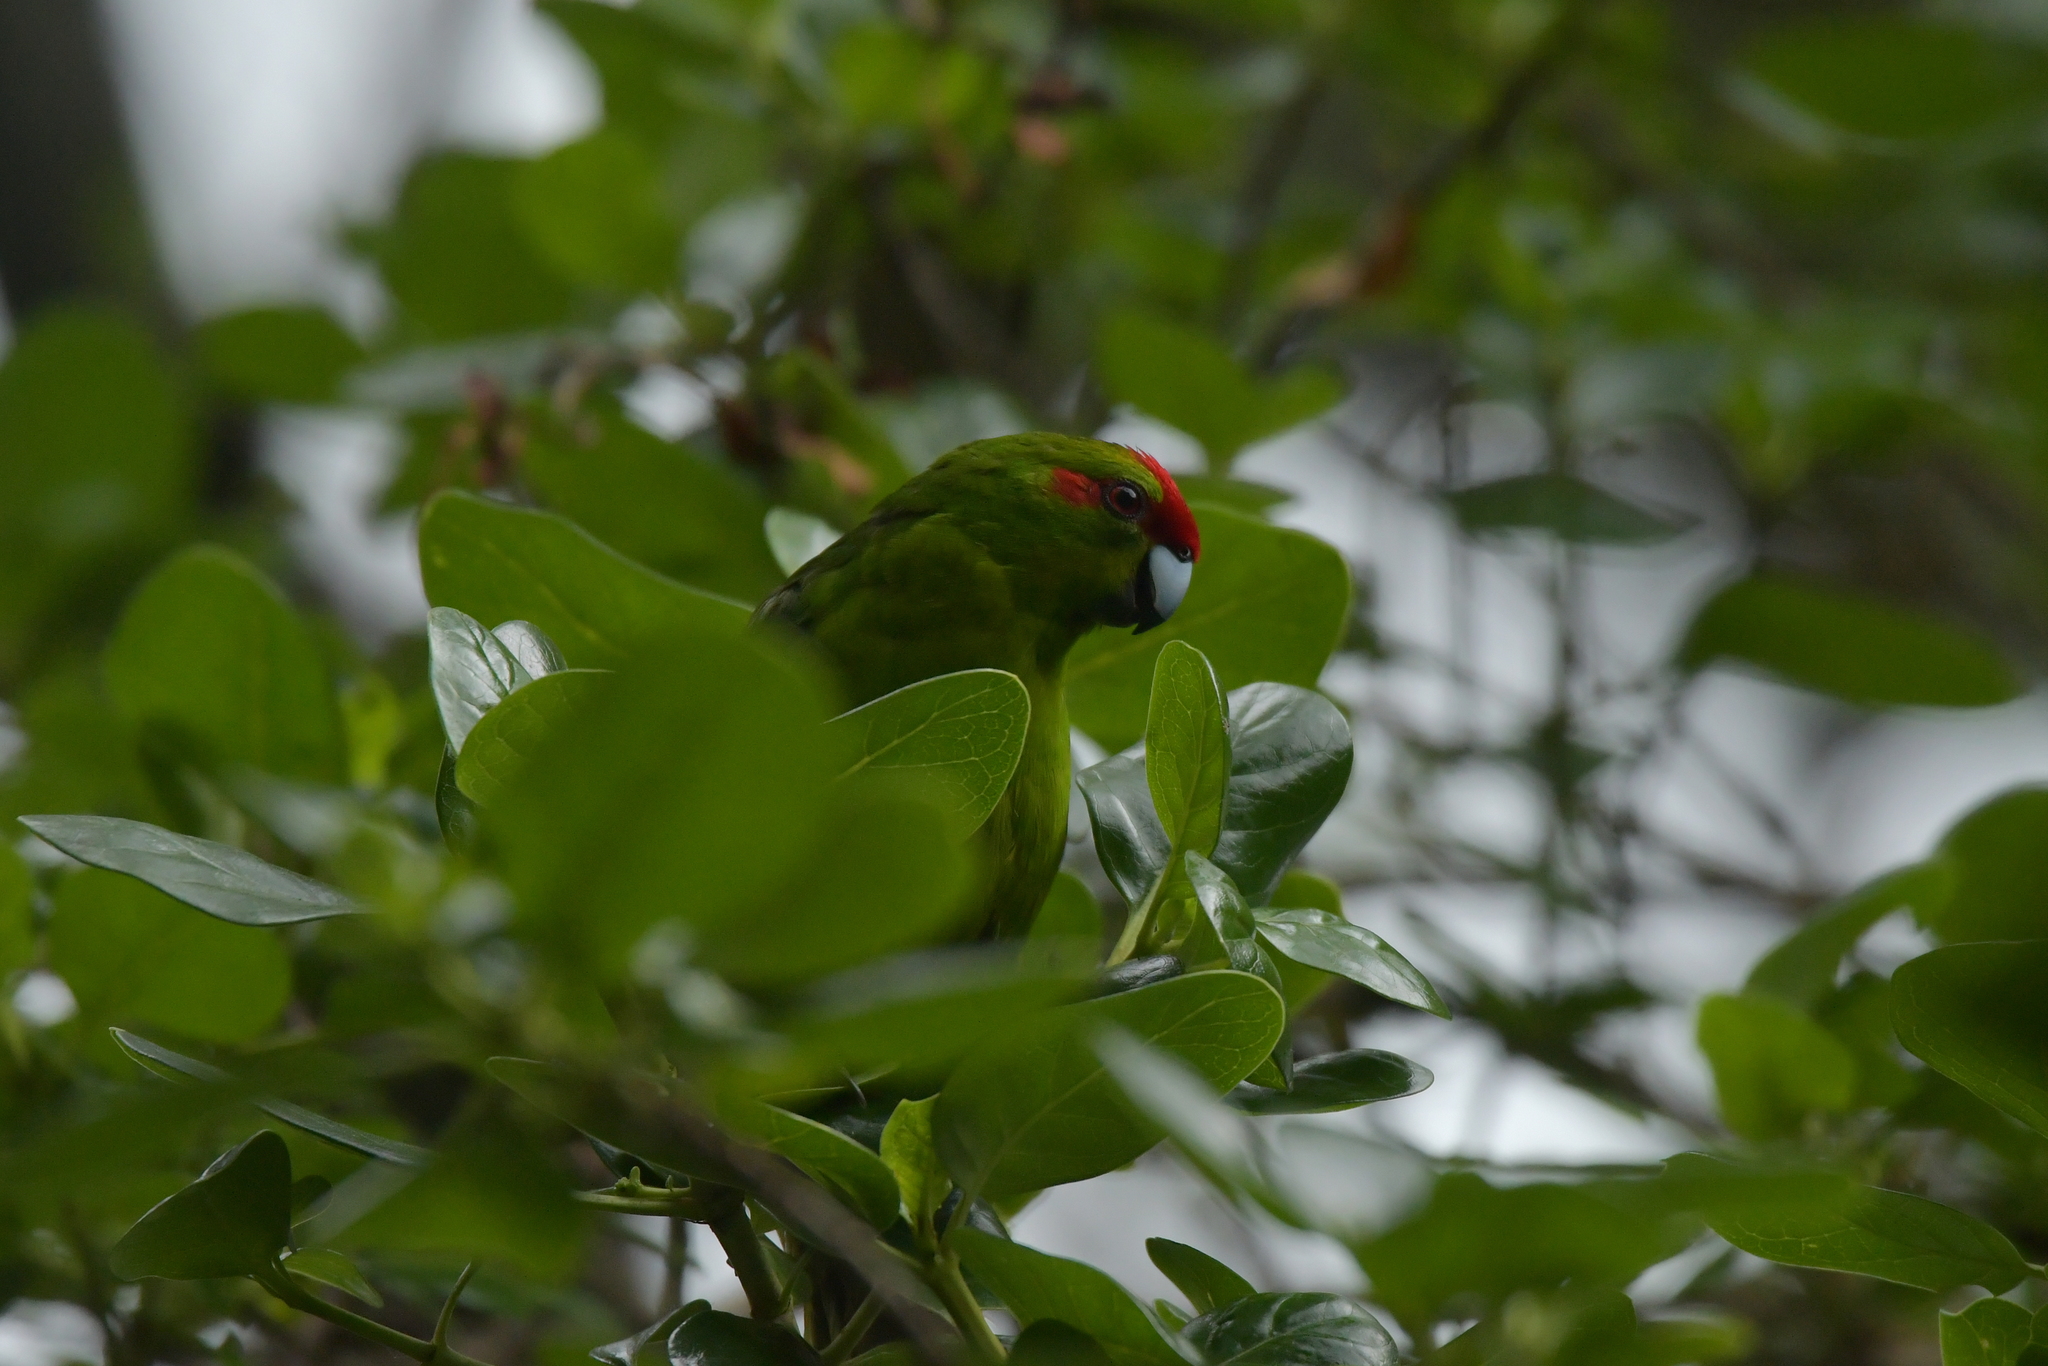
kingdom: Animalia
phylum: Chordata
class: Aves
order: Psittaciformes
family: Psittacidae
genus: Cyanoramphus
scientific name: Cyanoramphus novaezelandiae
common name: Red-fronted parakeet
